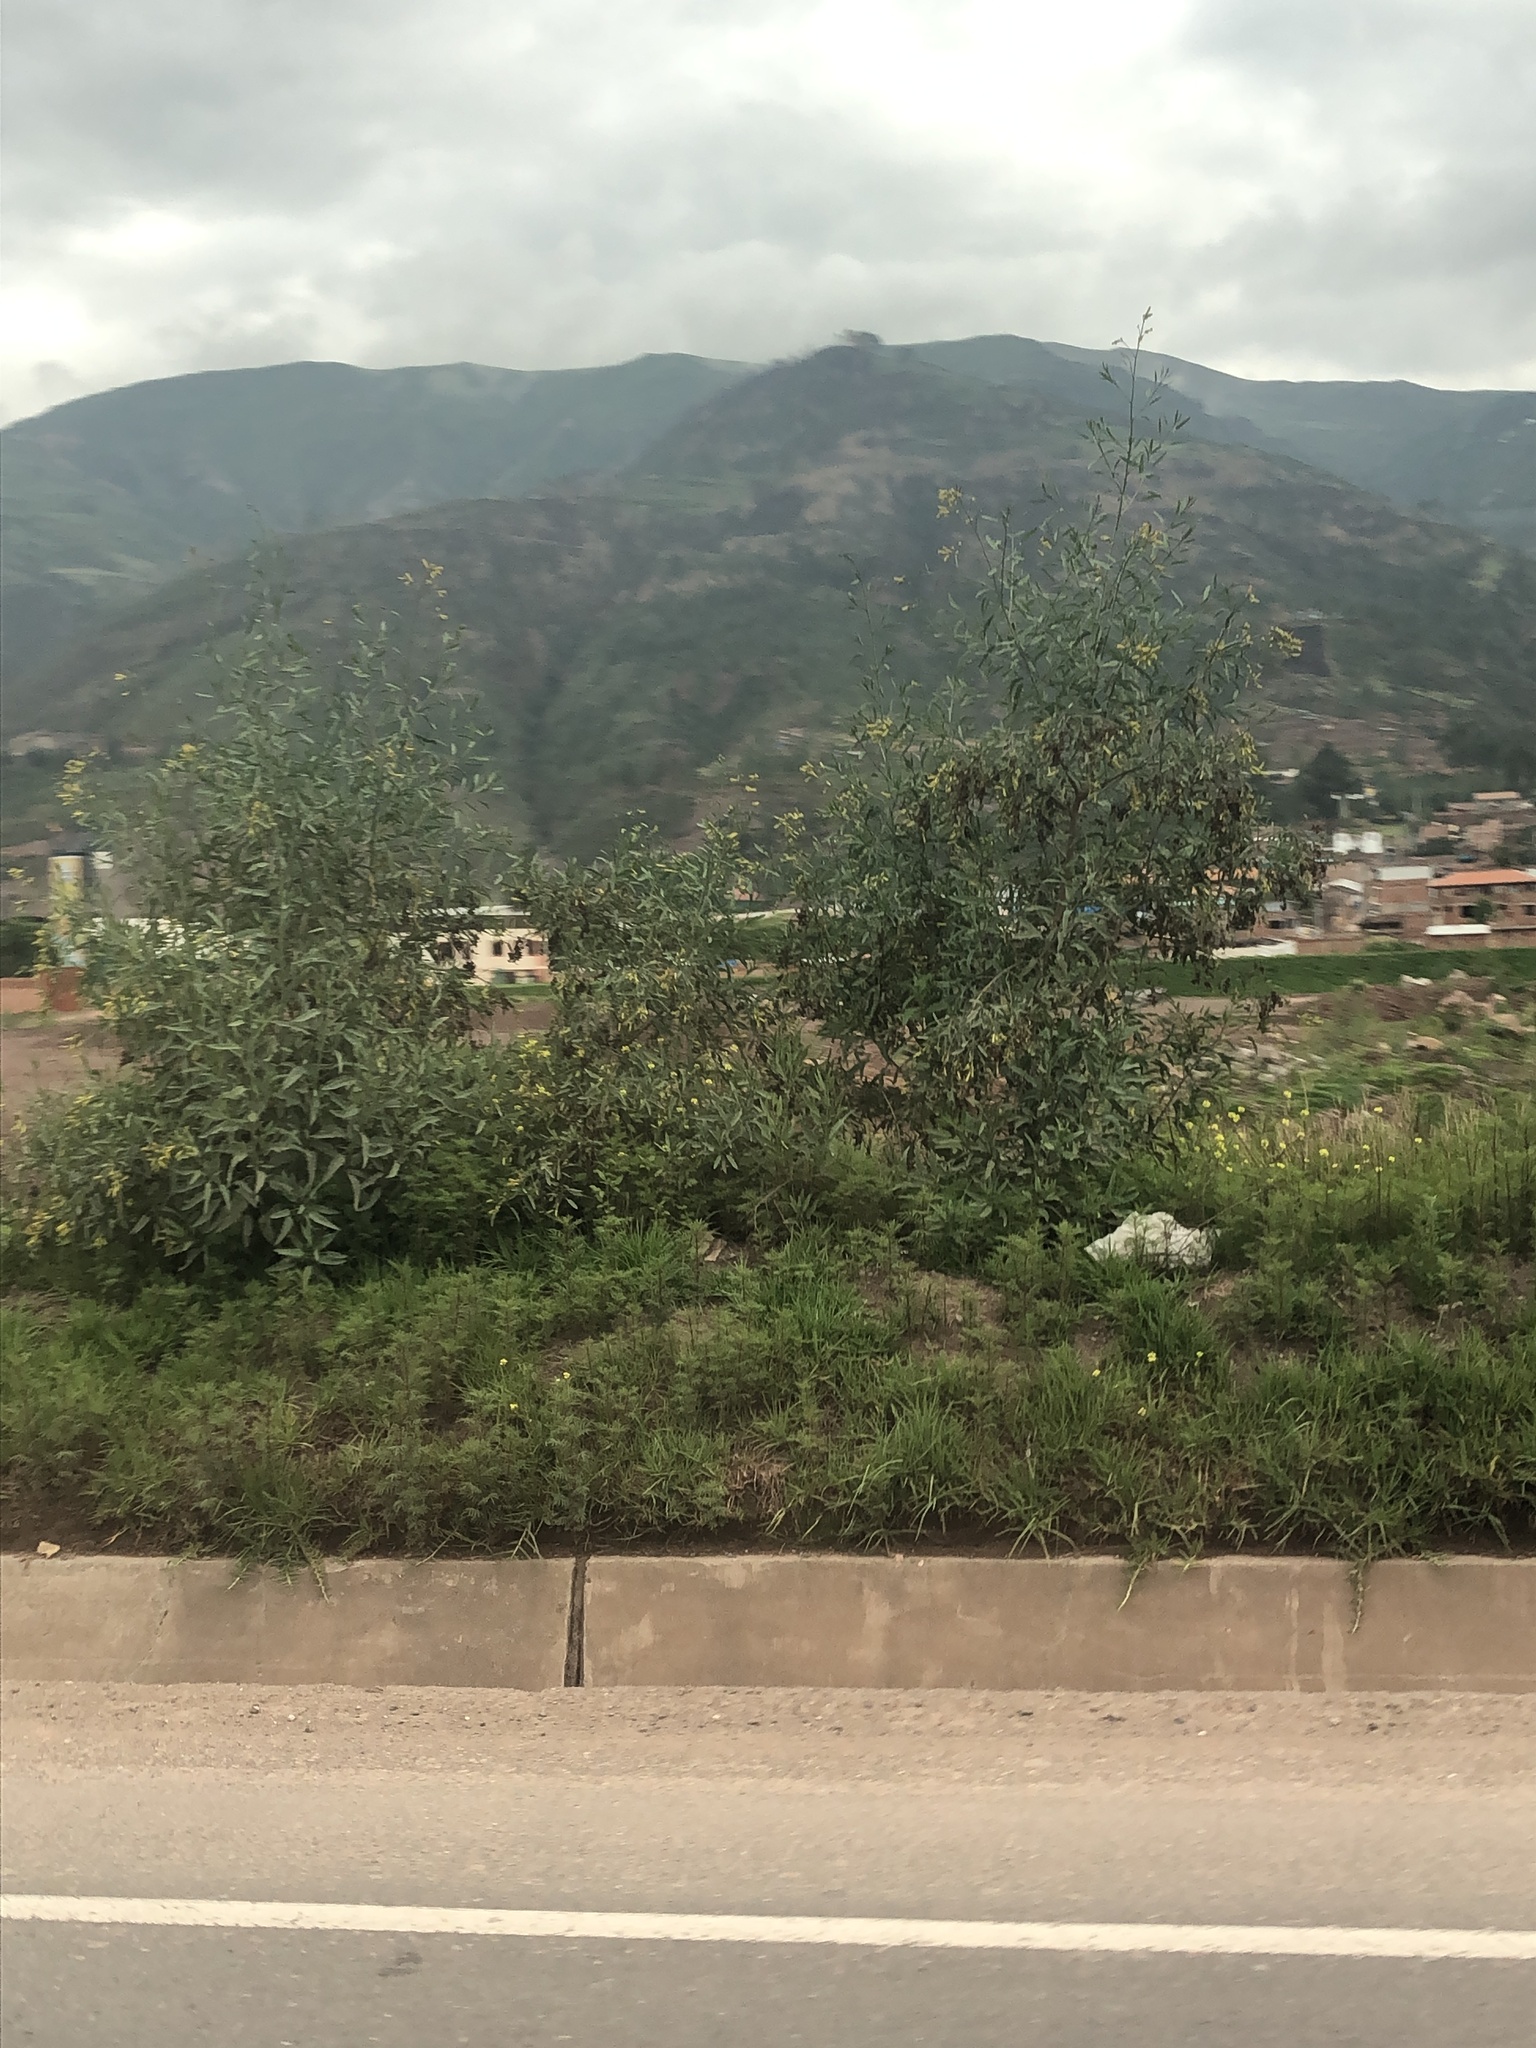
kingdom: Plantae
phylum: Tracheophyta
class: Magnoliopsida
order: Solanales
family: Solanaceae
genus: Nicotiana
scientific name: Nicotiana glauca
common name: Tree tobacco
